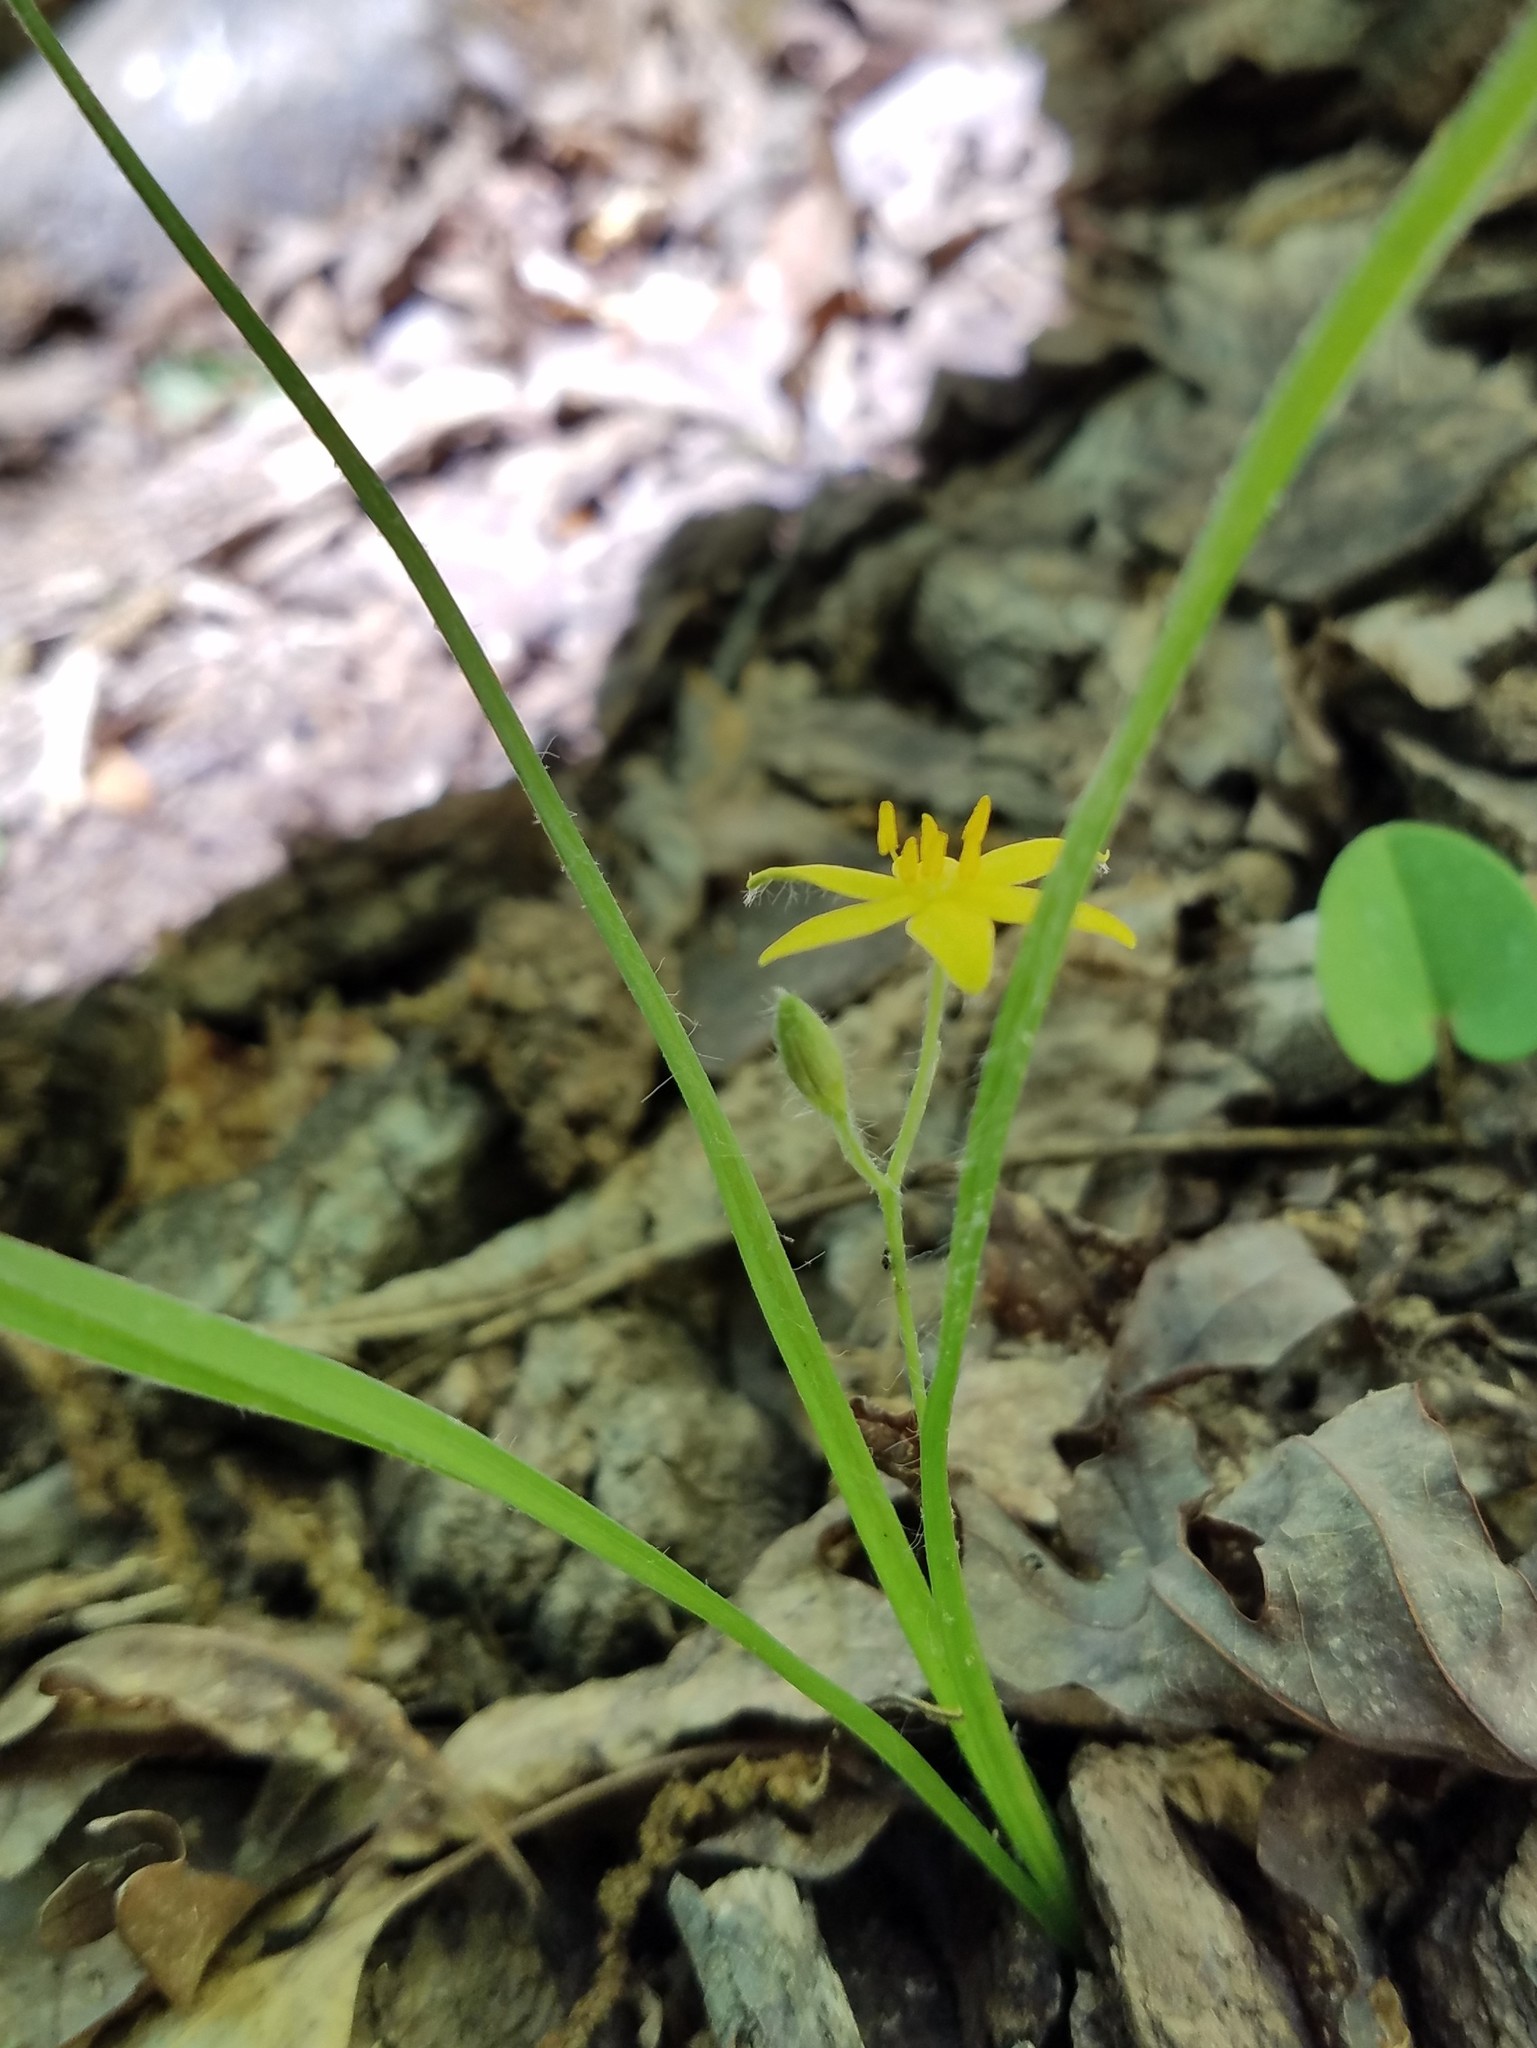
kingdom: Plantae
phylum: Tracheophyta
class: Liliopsida
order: Asparagales
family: Hypoxidaceae
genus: Hypoxis
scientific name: Hypoxis hirsuta
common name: Common goldstar
